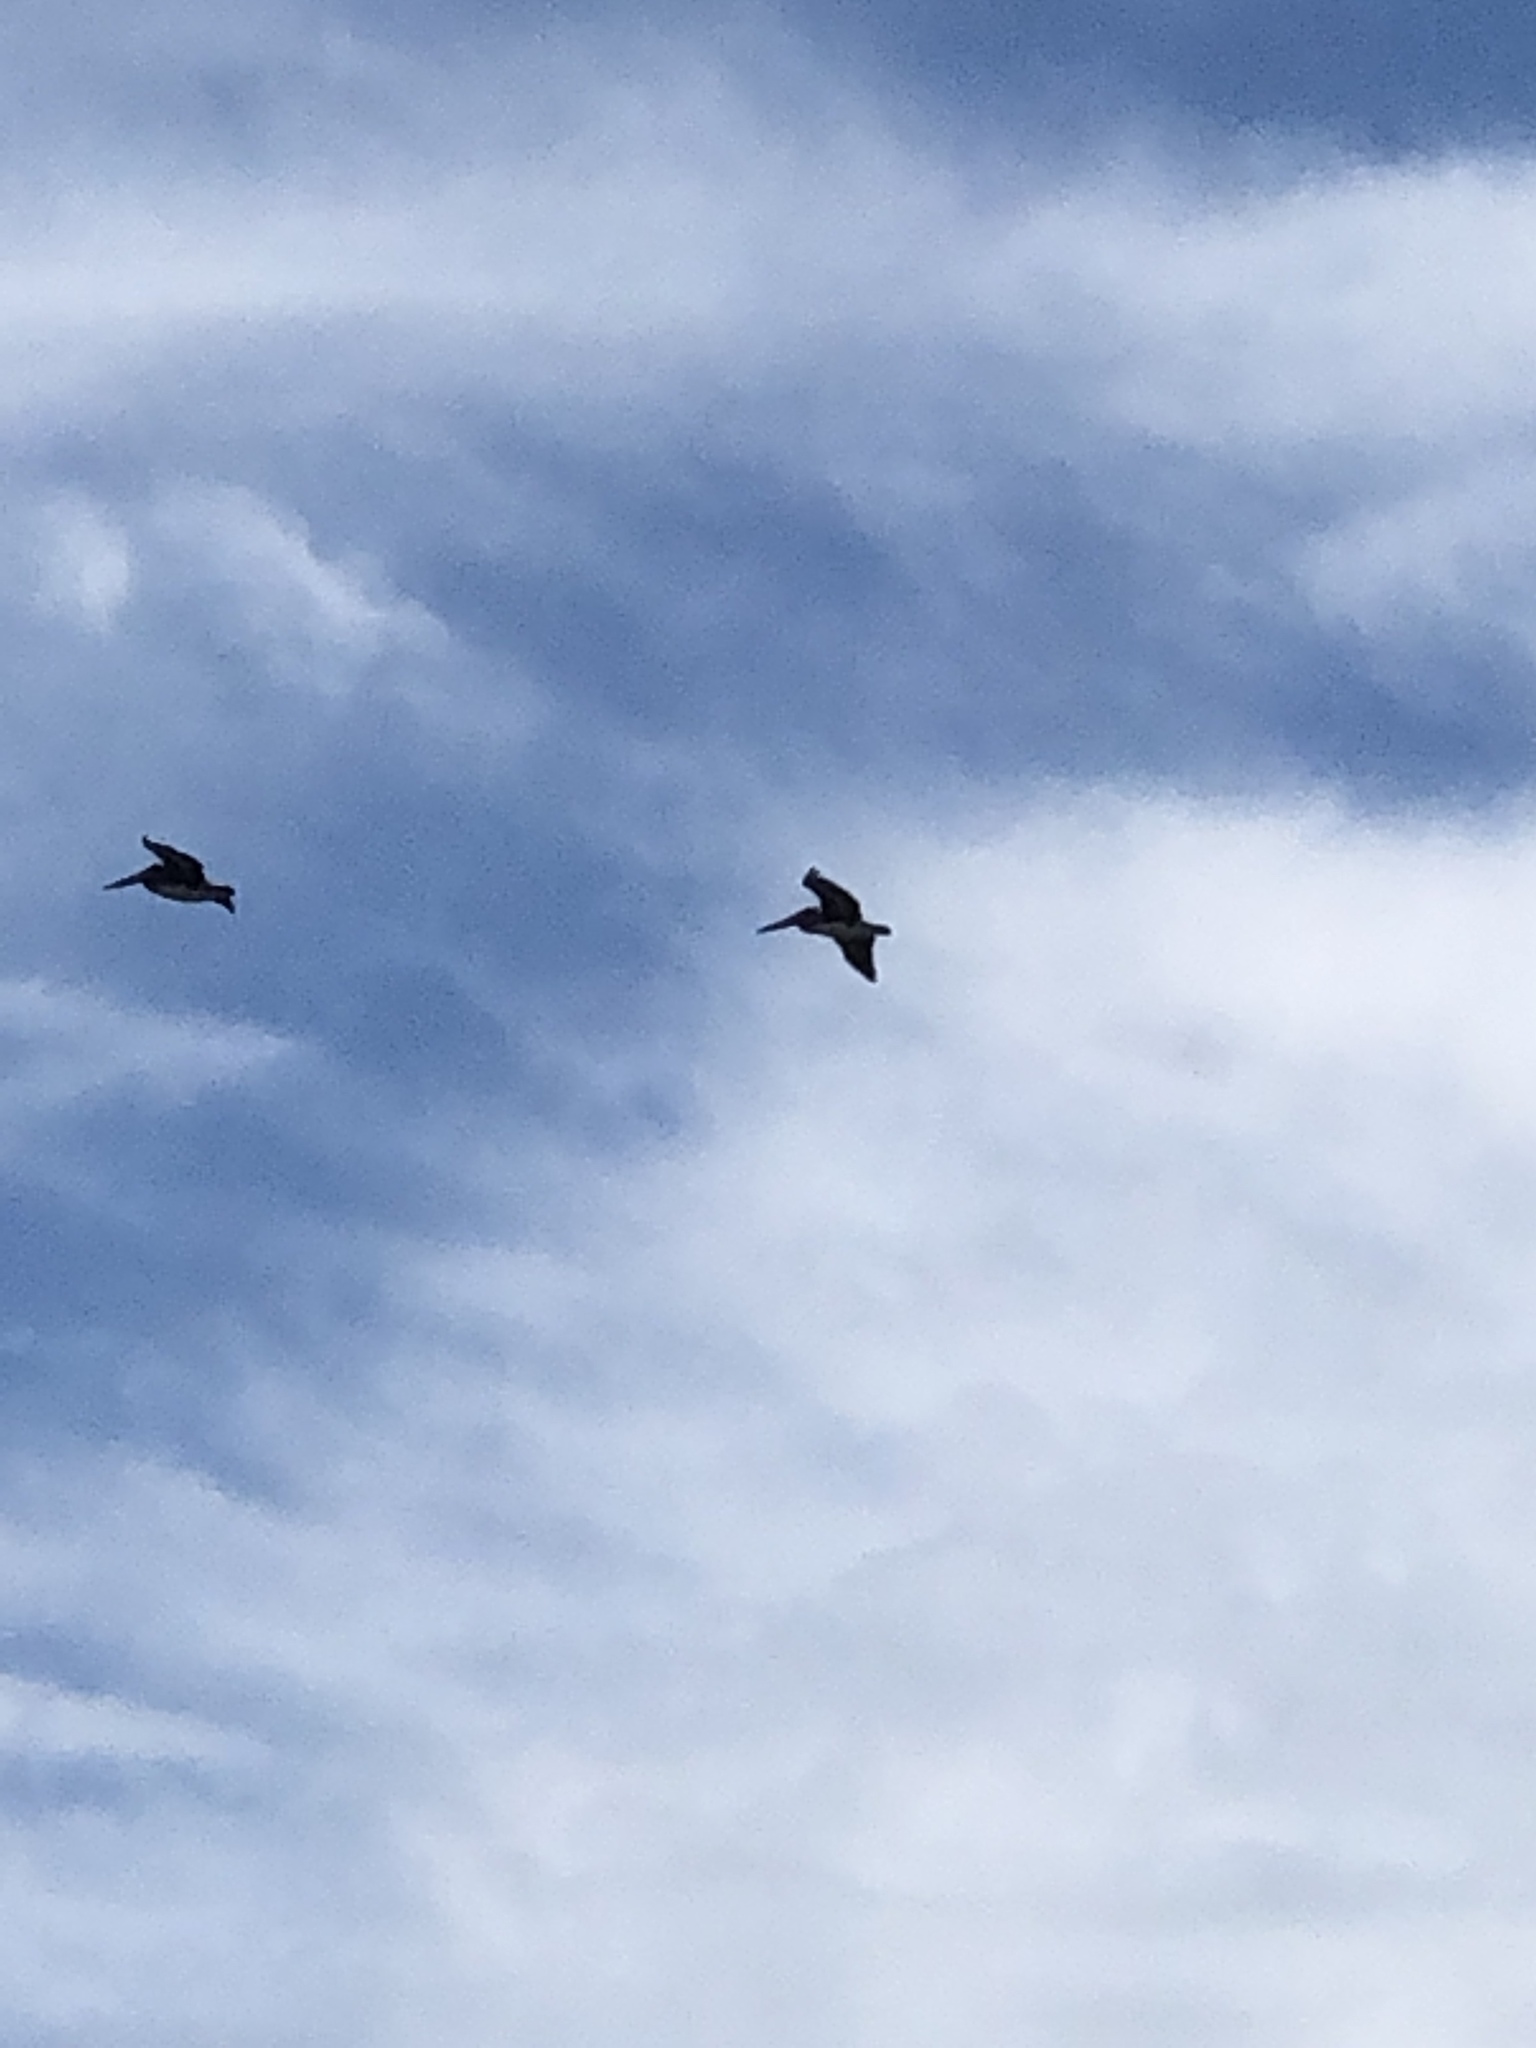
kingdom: Animalia
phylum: Chordata
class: Aves
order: Pelecaniformes
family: Pelecanidae
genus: Pelecanus
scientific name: Pelecanus occidentalis
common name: Brown pelican
